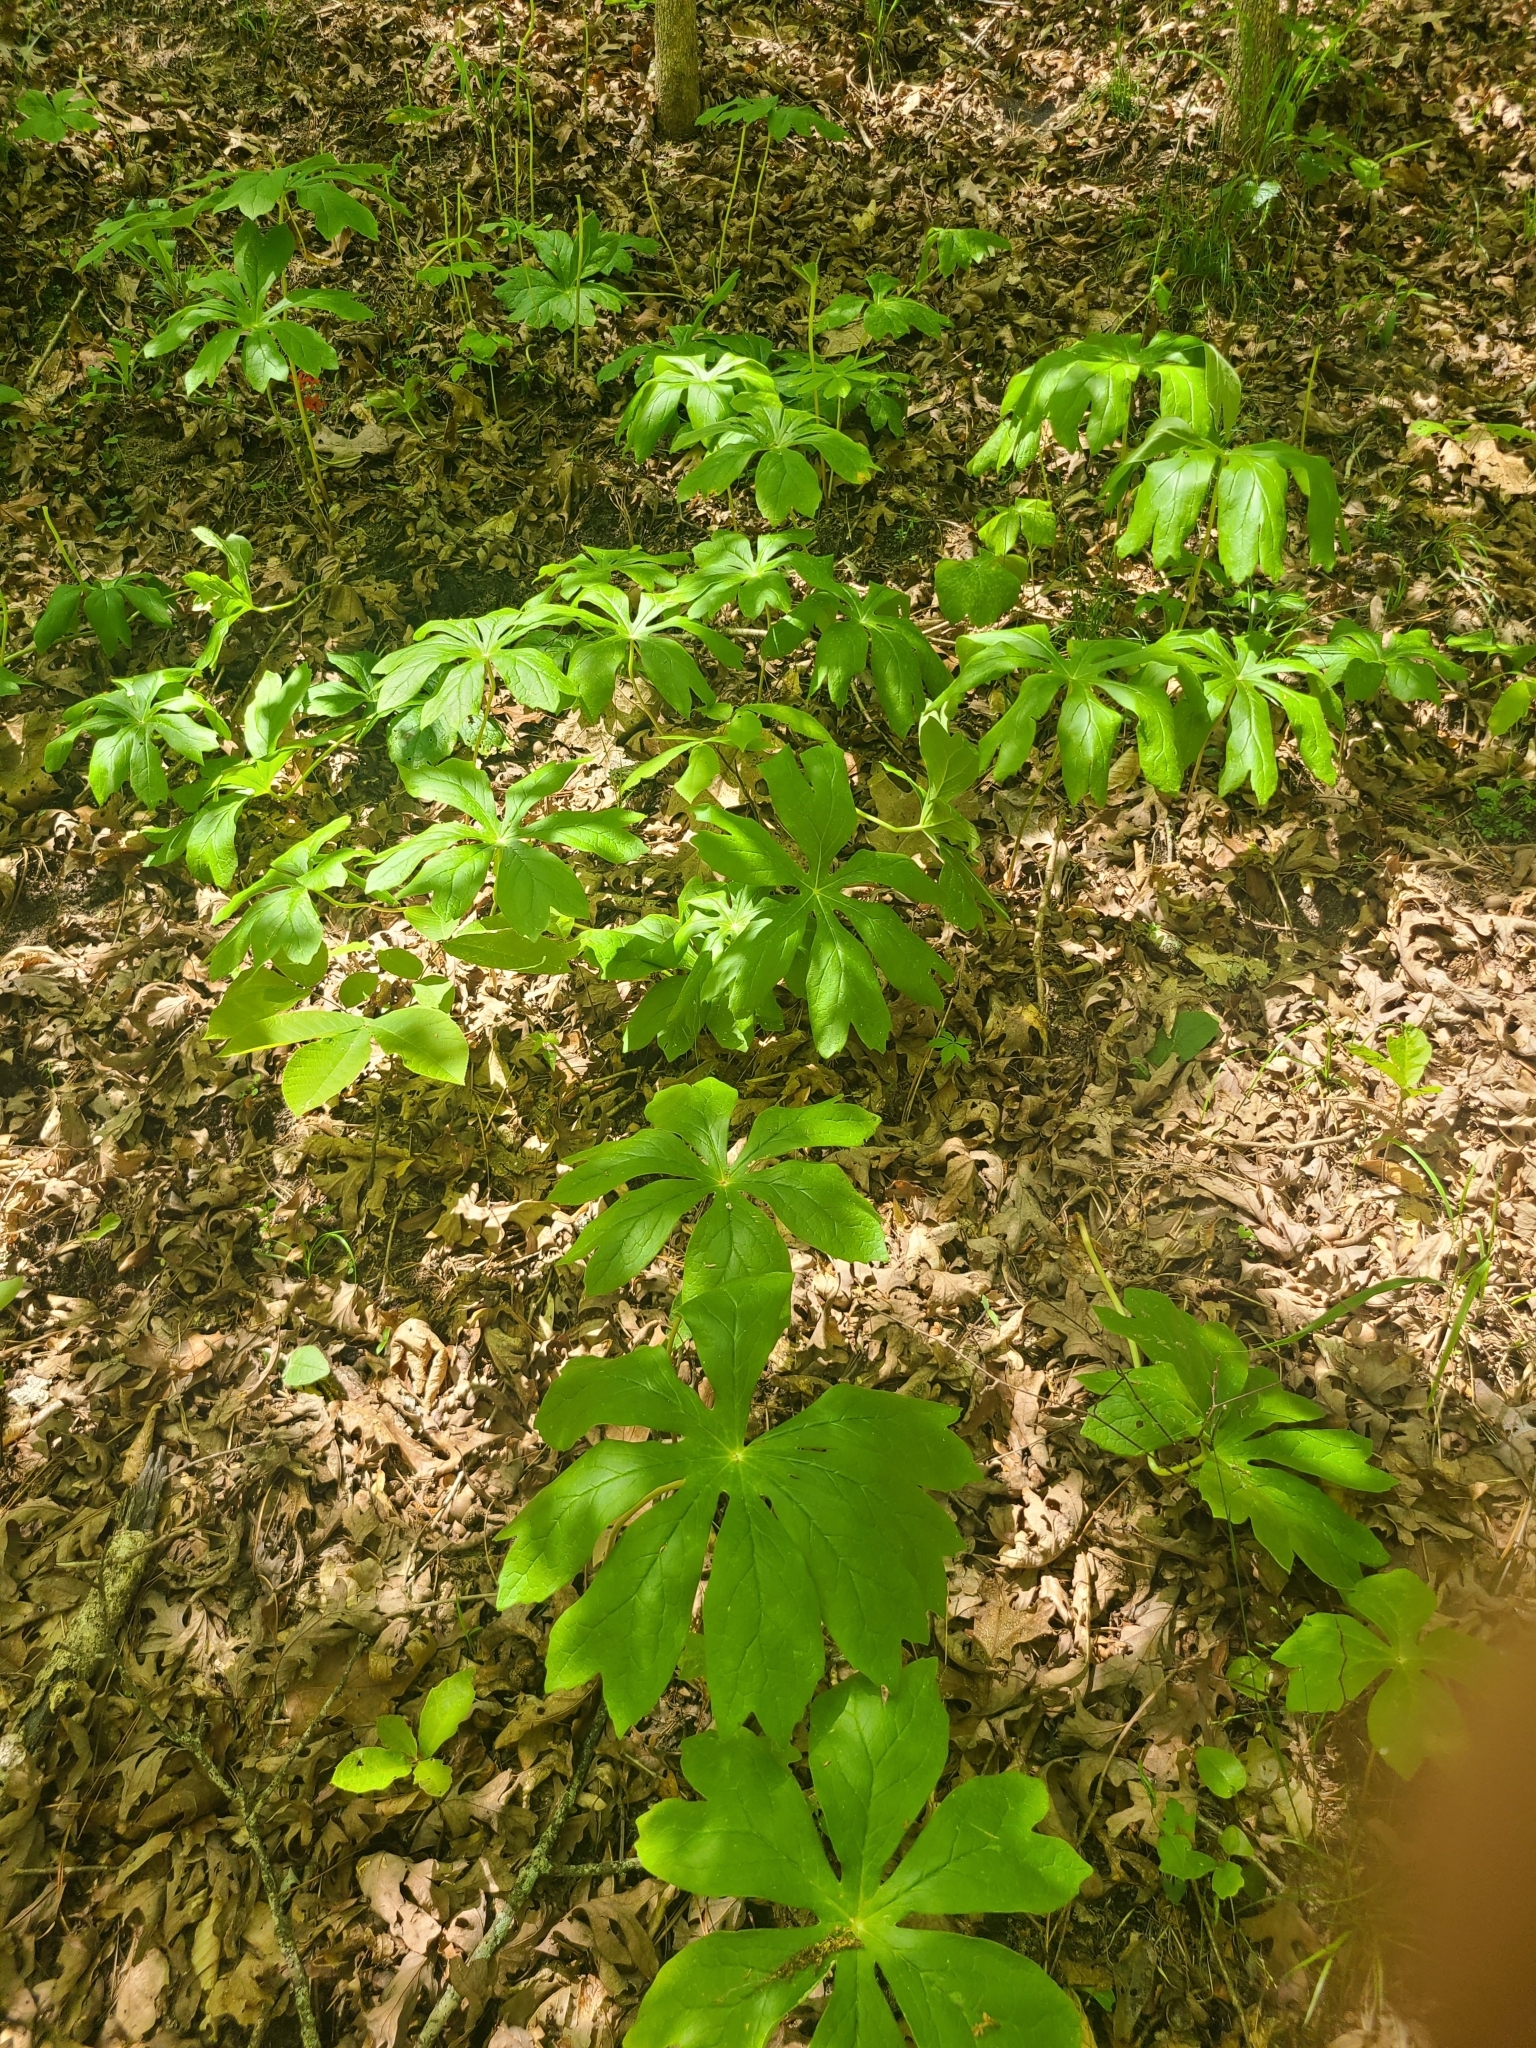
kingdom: Plantae
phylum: Tracheophyta
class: Magnoliopsida
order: Ranunculales
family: Berberidaceae
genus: Podophyllum
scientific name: Podophyllum peltatum
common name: Wild mandrake
